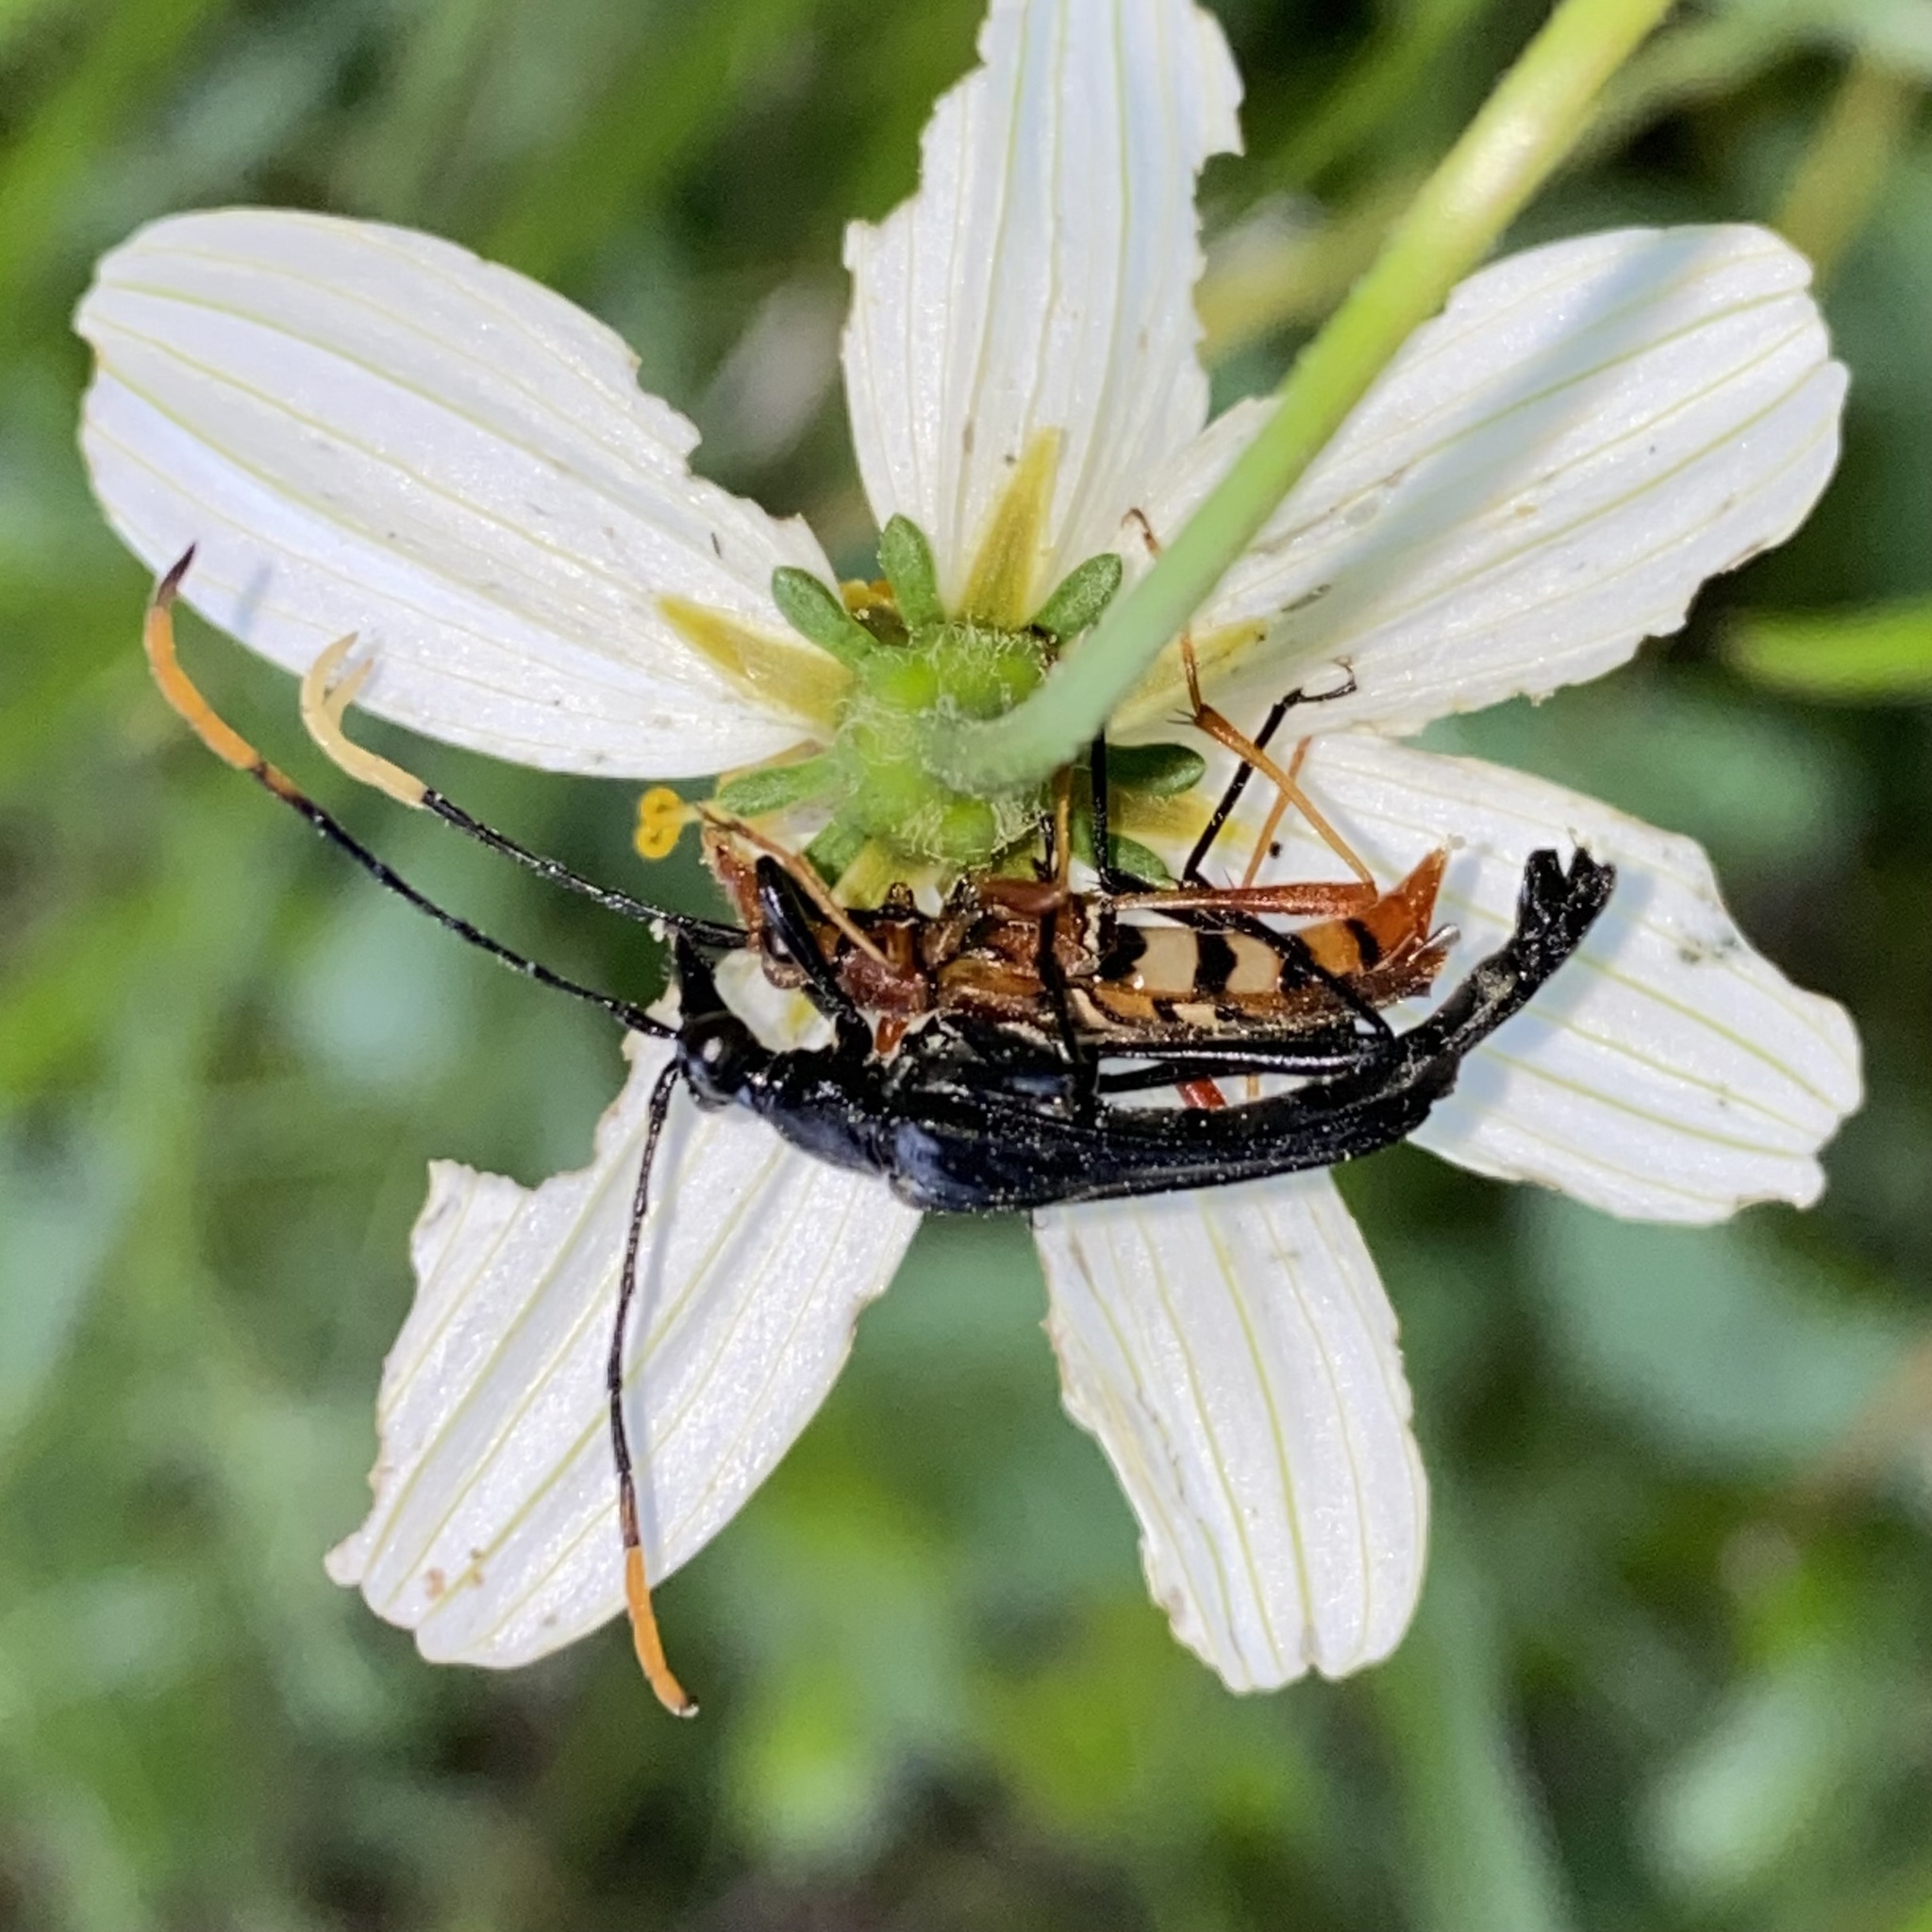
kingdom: Animalia
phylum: Arthropoda
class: Insecta
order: Coleoptera
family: Cerambycidae
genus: Strangalia
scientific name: Strangalia melampus
